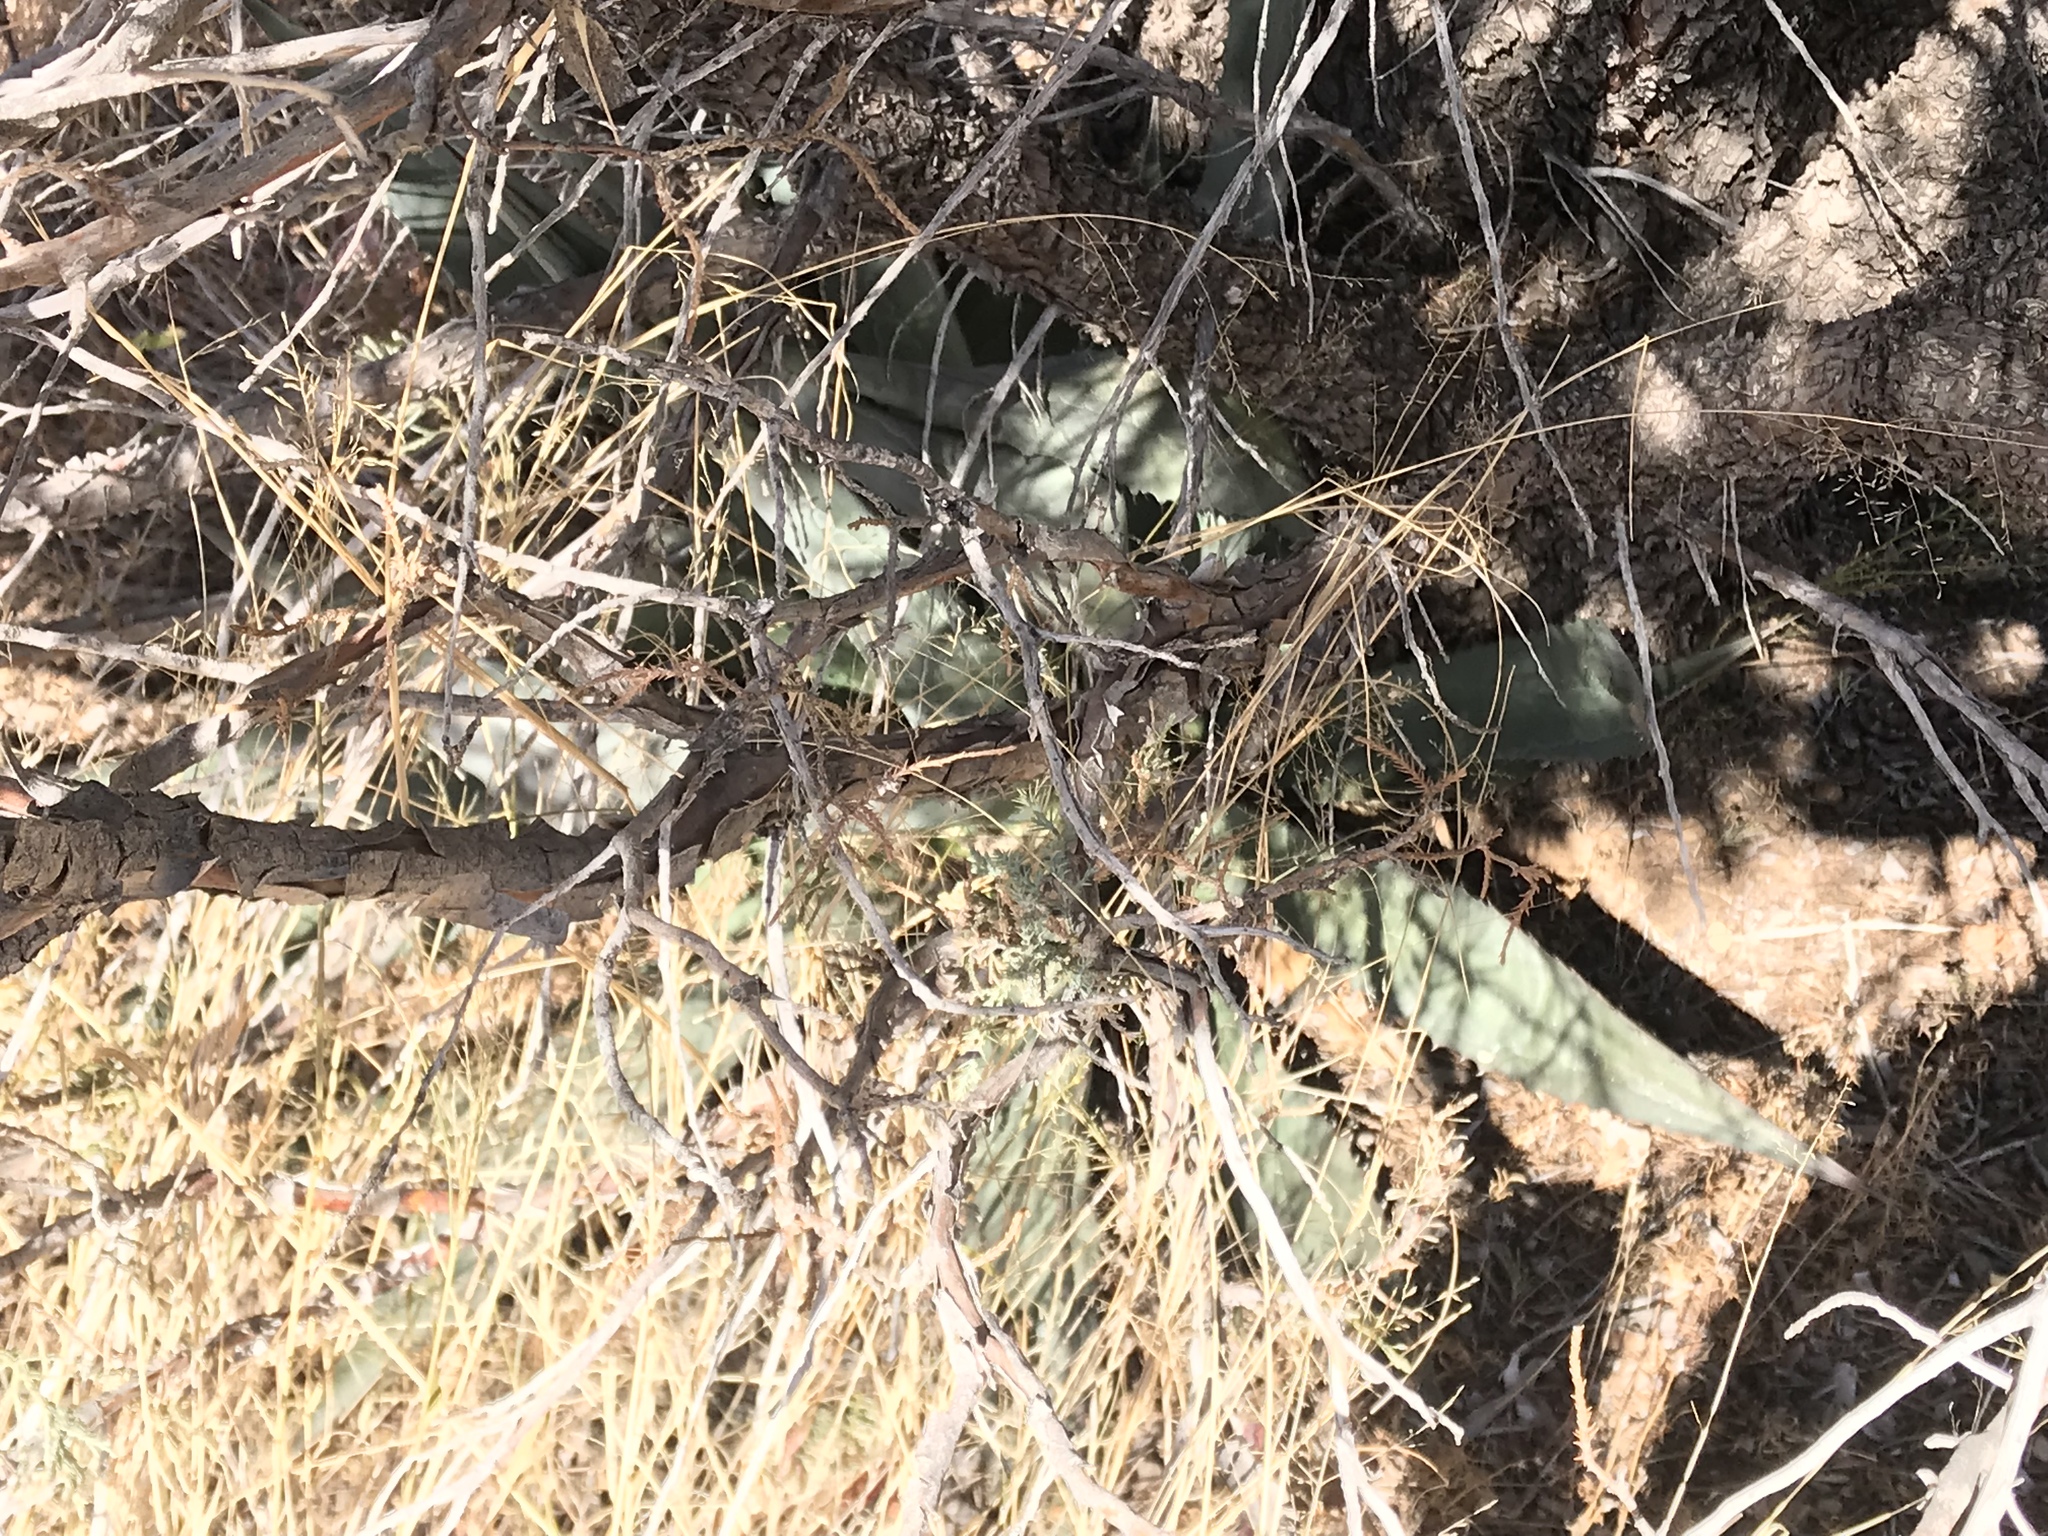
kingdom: Plantae
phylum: Tracheophyta
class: Liliopsida
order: Asparagales
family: Asparagaceae
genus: Agave
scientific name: Agave palmeri
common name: Palmer agave
